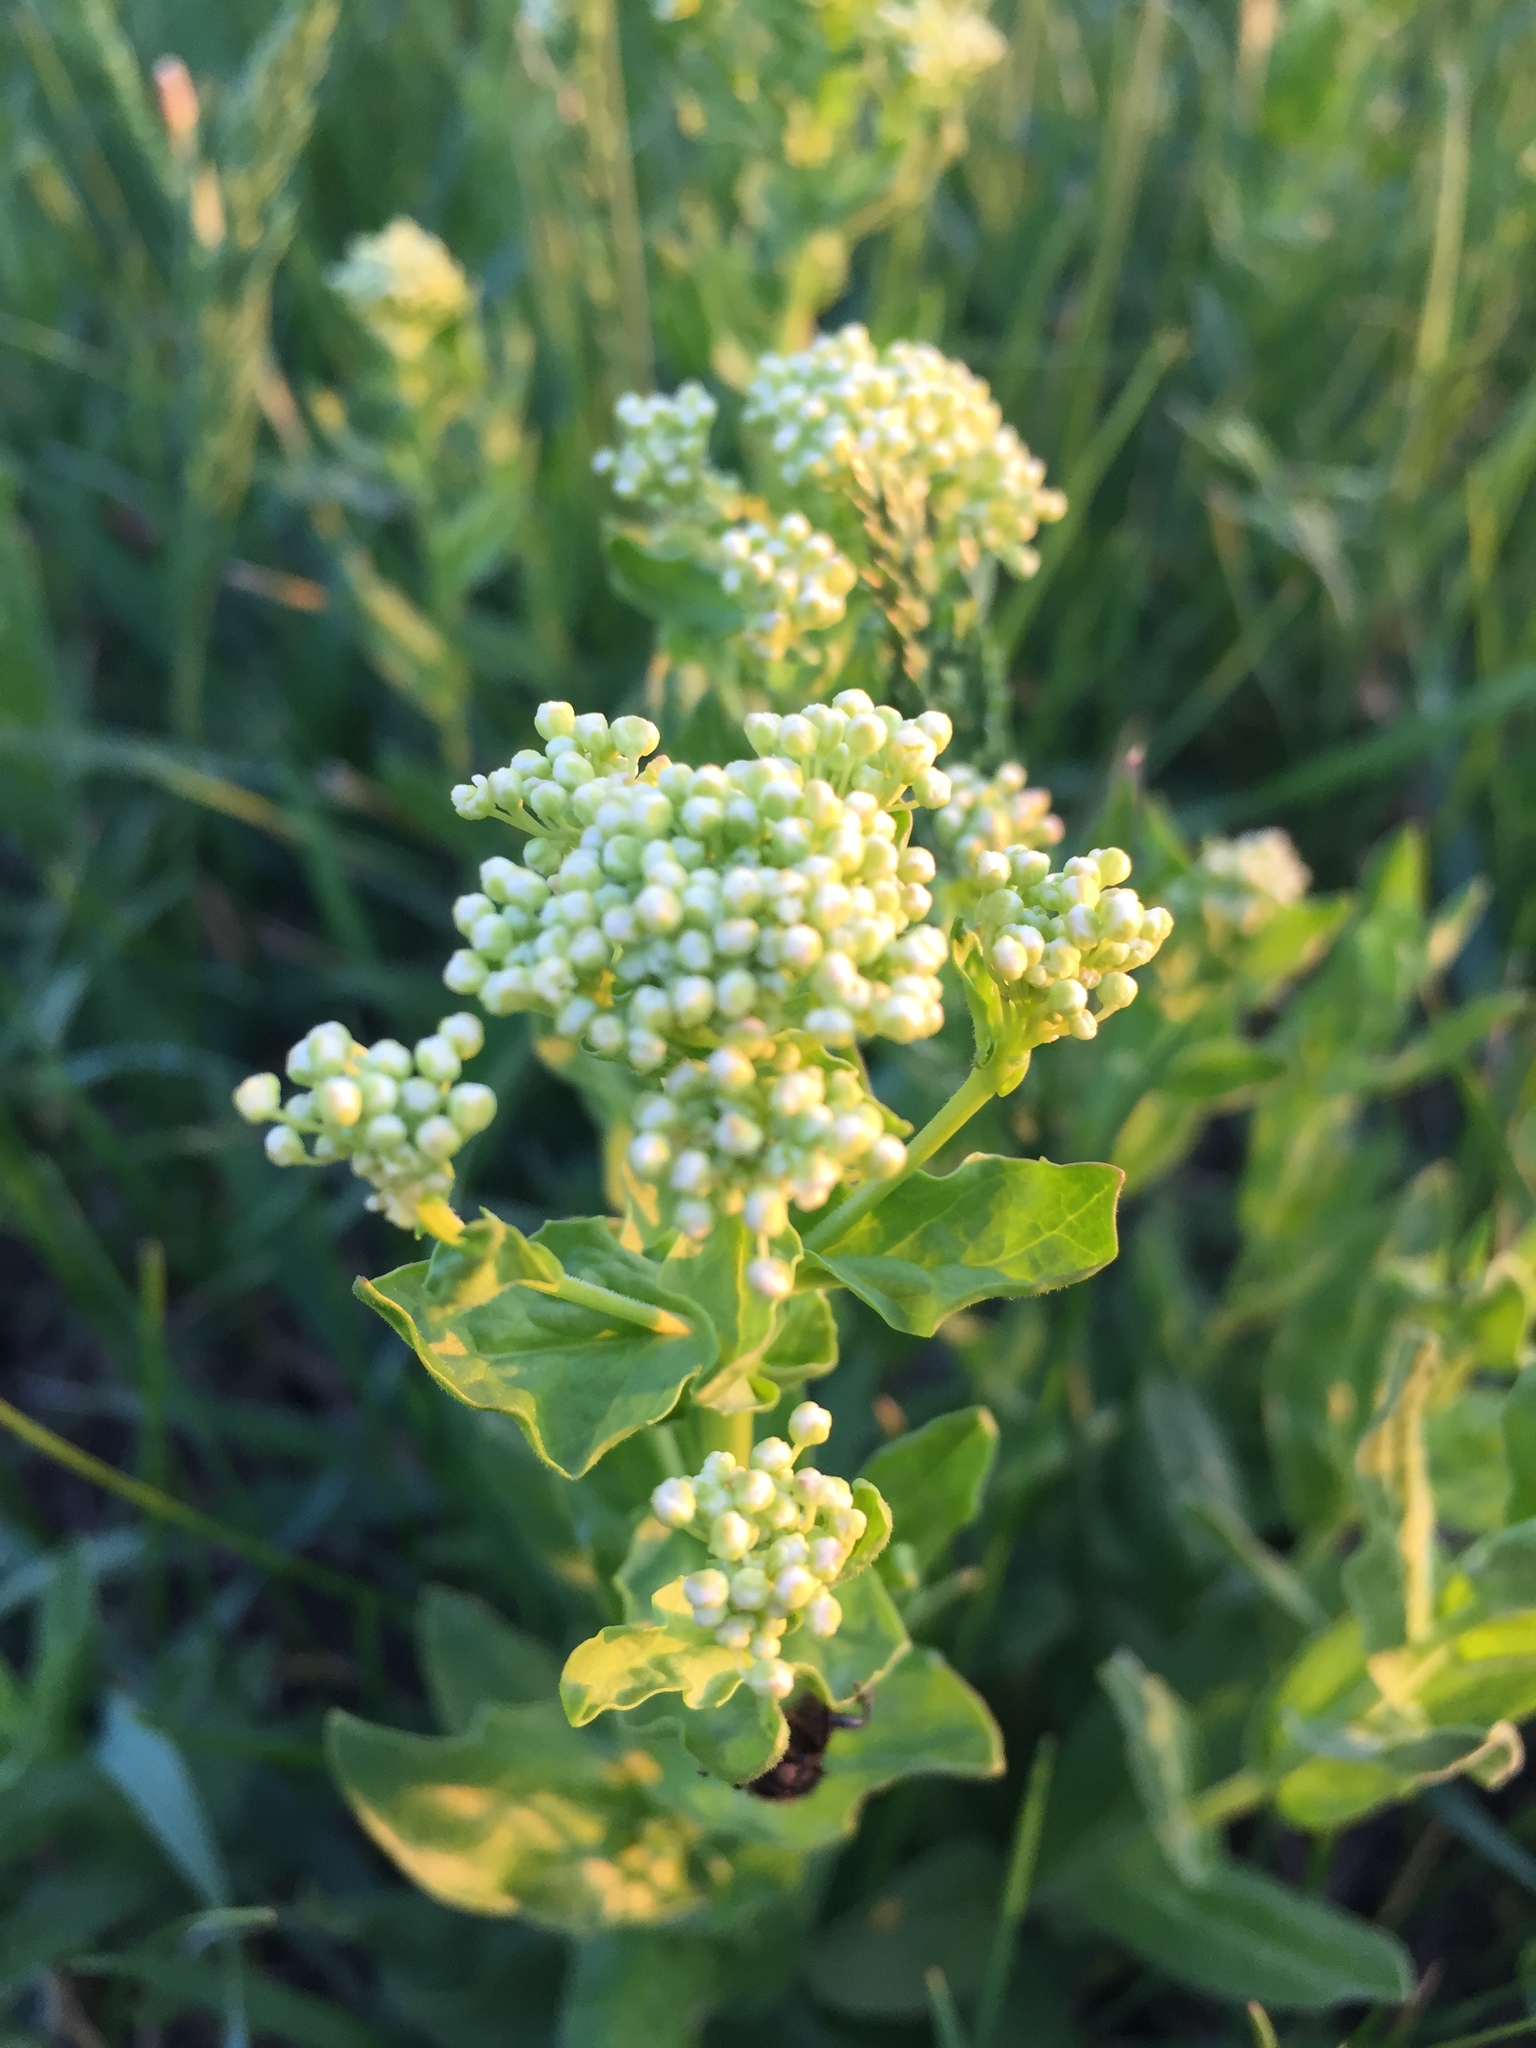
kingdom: Plantae
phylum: Tracheophyta
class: Magnoliopsida
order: Brassicales
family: Brassicaceae
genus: Lepidium
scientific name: Lepidium draba
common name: Hoary cress
